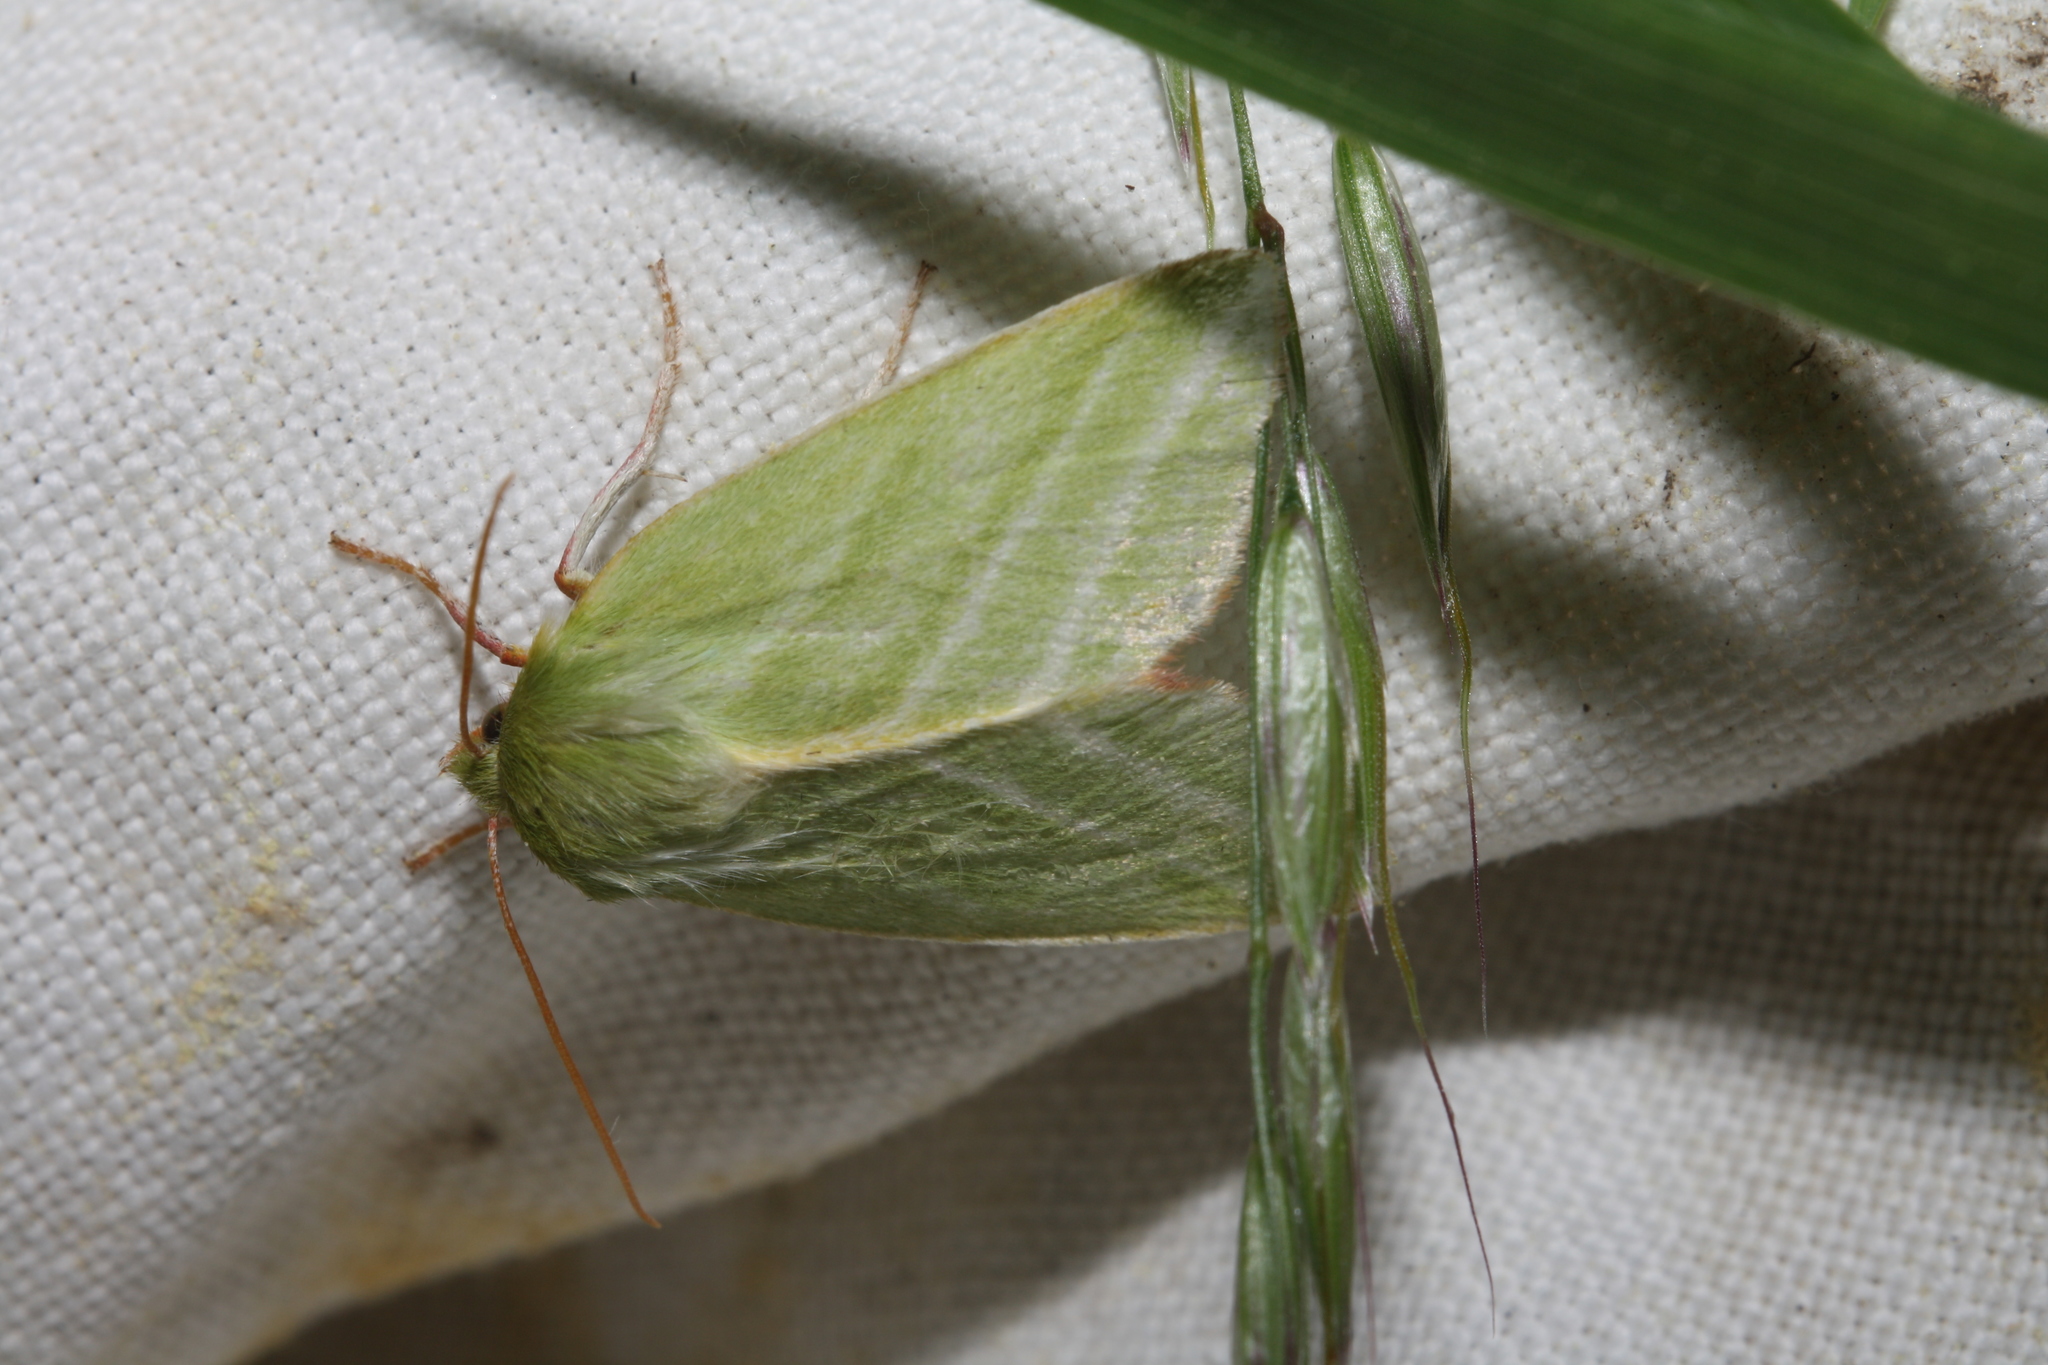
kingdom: Animalia
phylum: Arthropoda
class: Insecta
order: Lepidoptera
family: Nolidae
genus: Pseudoips
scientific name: Pseudoips prasinana
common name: Green silver-lines
